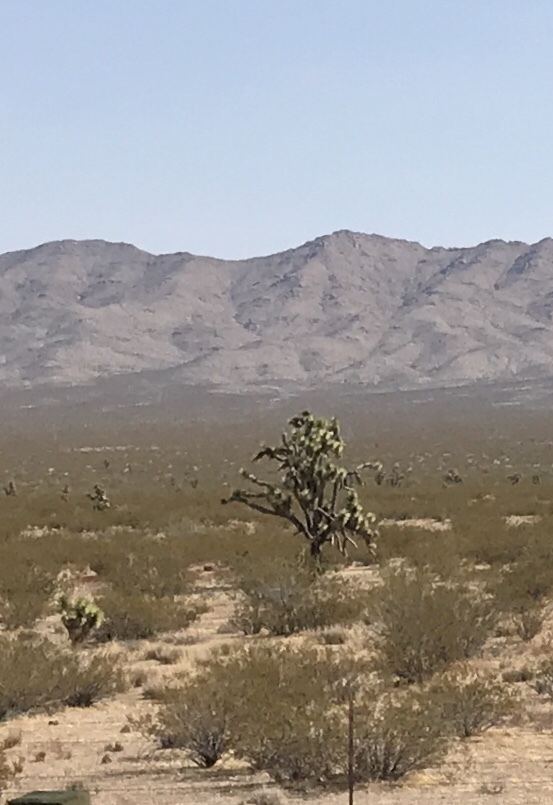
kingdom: Plantae
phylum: Tracheophyta
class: Liliopsida
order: Asparagales
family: Asparagaceae
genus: Yucca
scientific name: Yucca brevifolia
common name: Joshua tree
